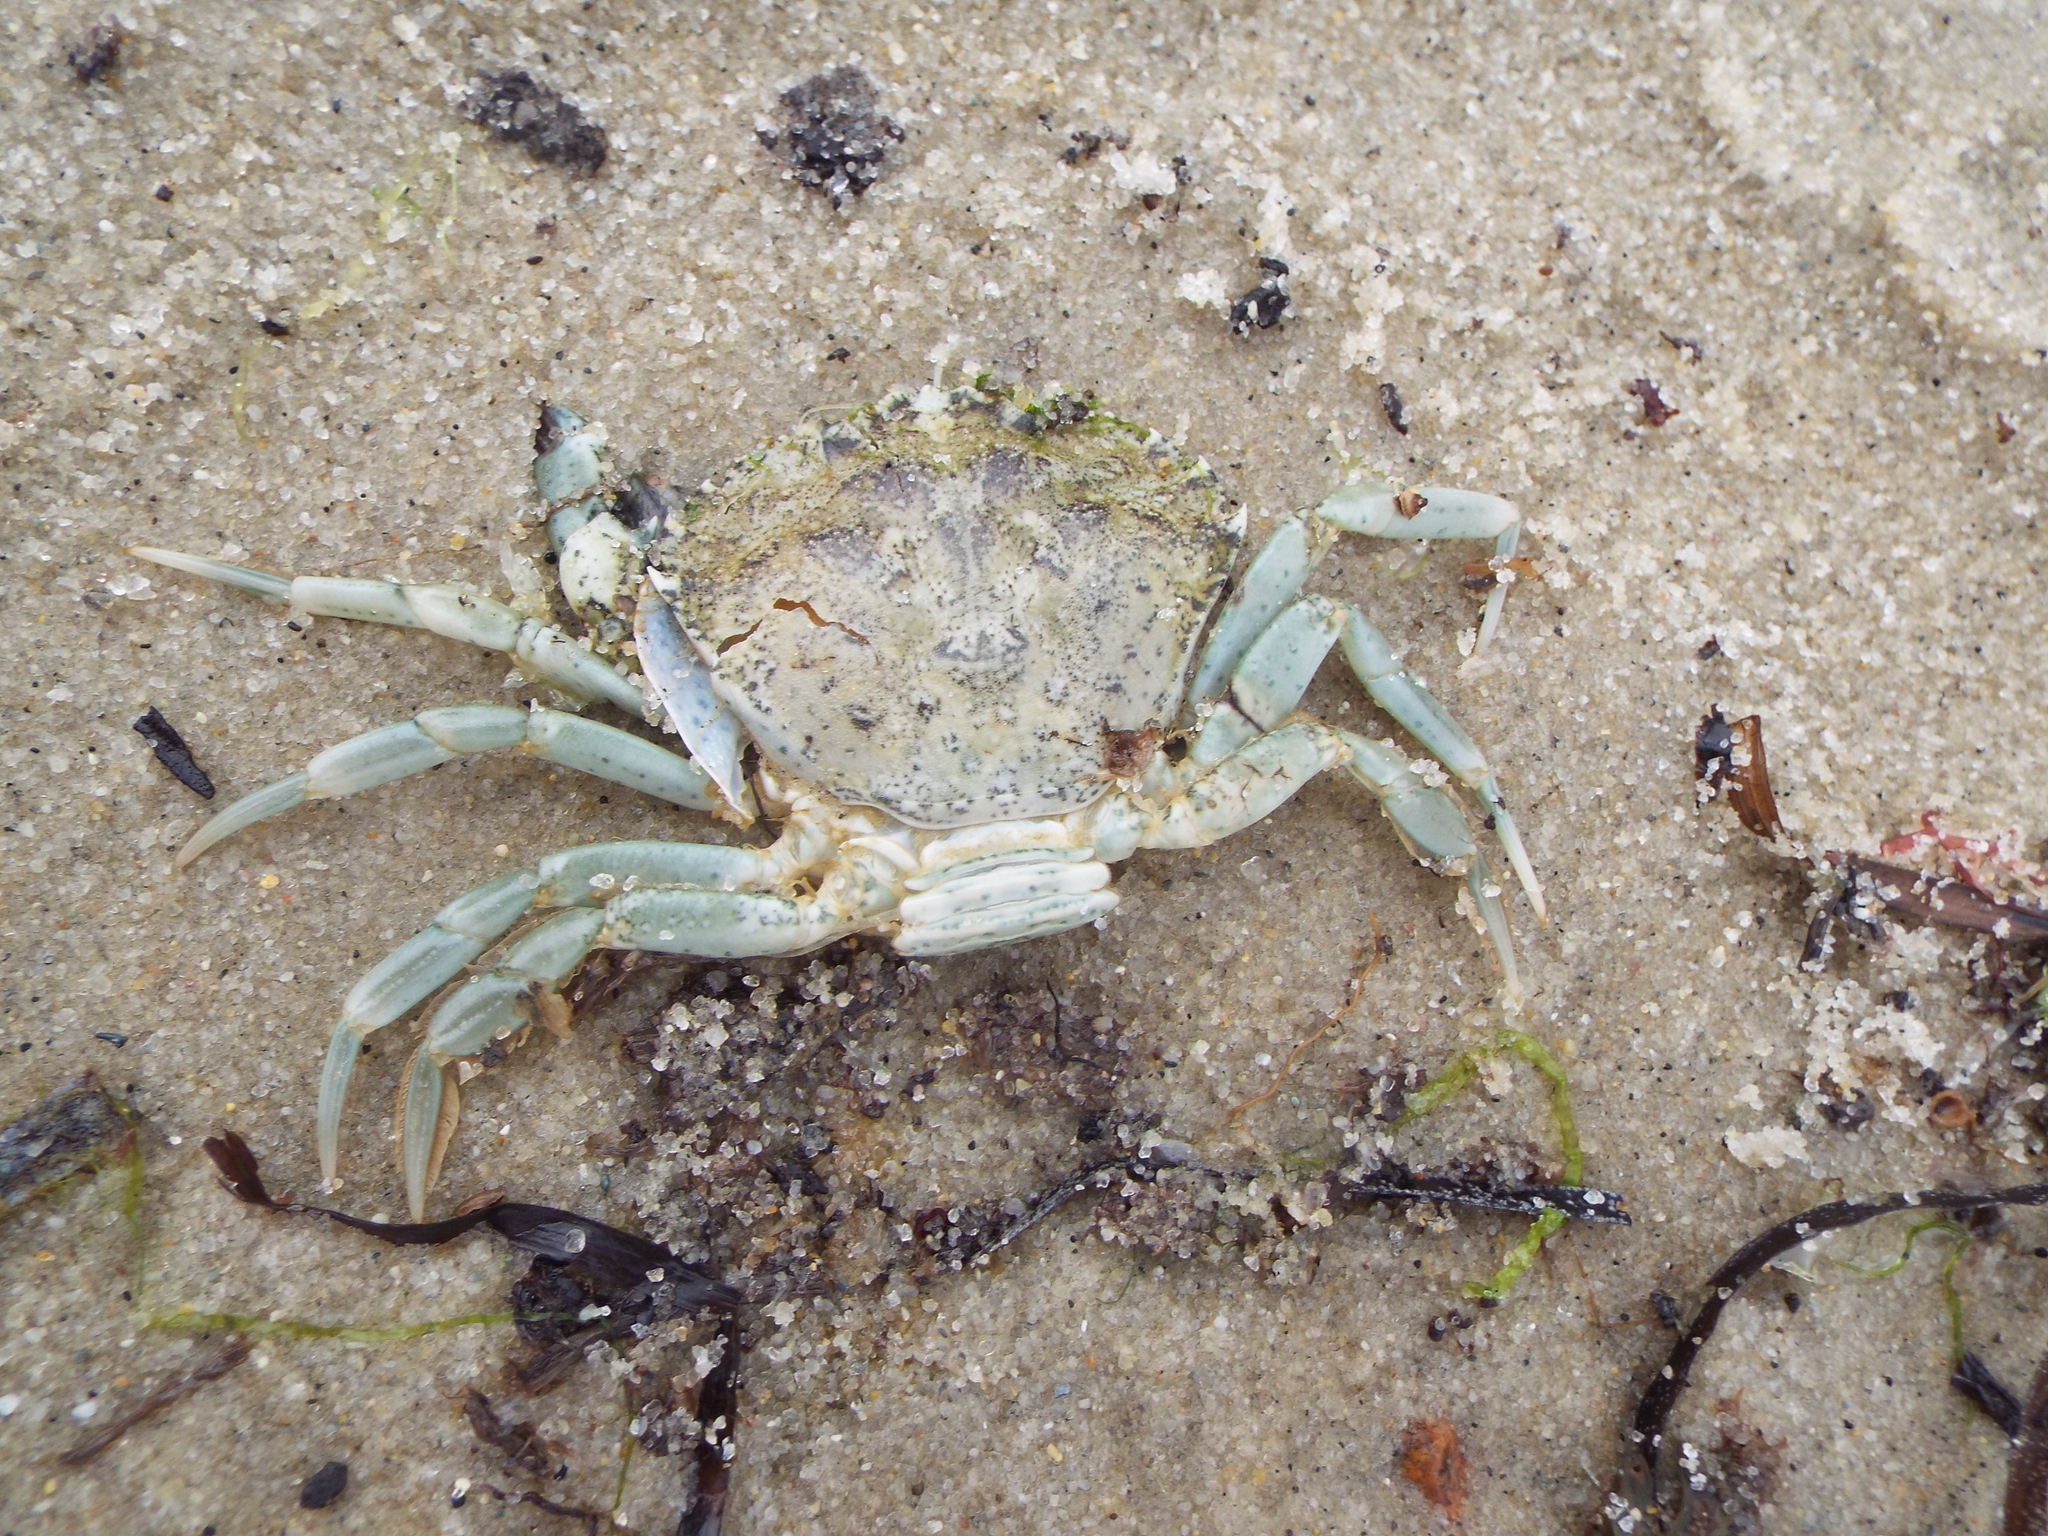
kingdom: Animalia
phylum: Arthropoda
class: Malacostraca
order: Decapoda
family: Carcinidae
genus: Carcinus
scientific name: Carcinus maenas
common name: European green crab
